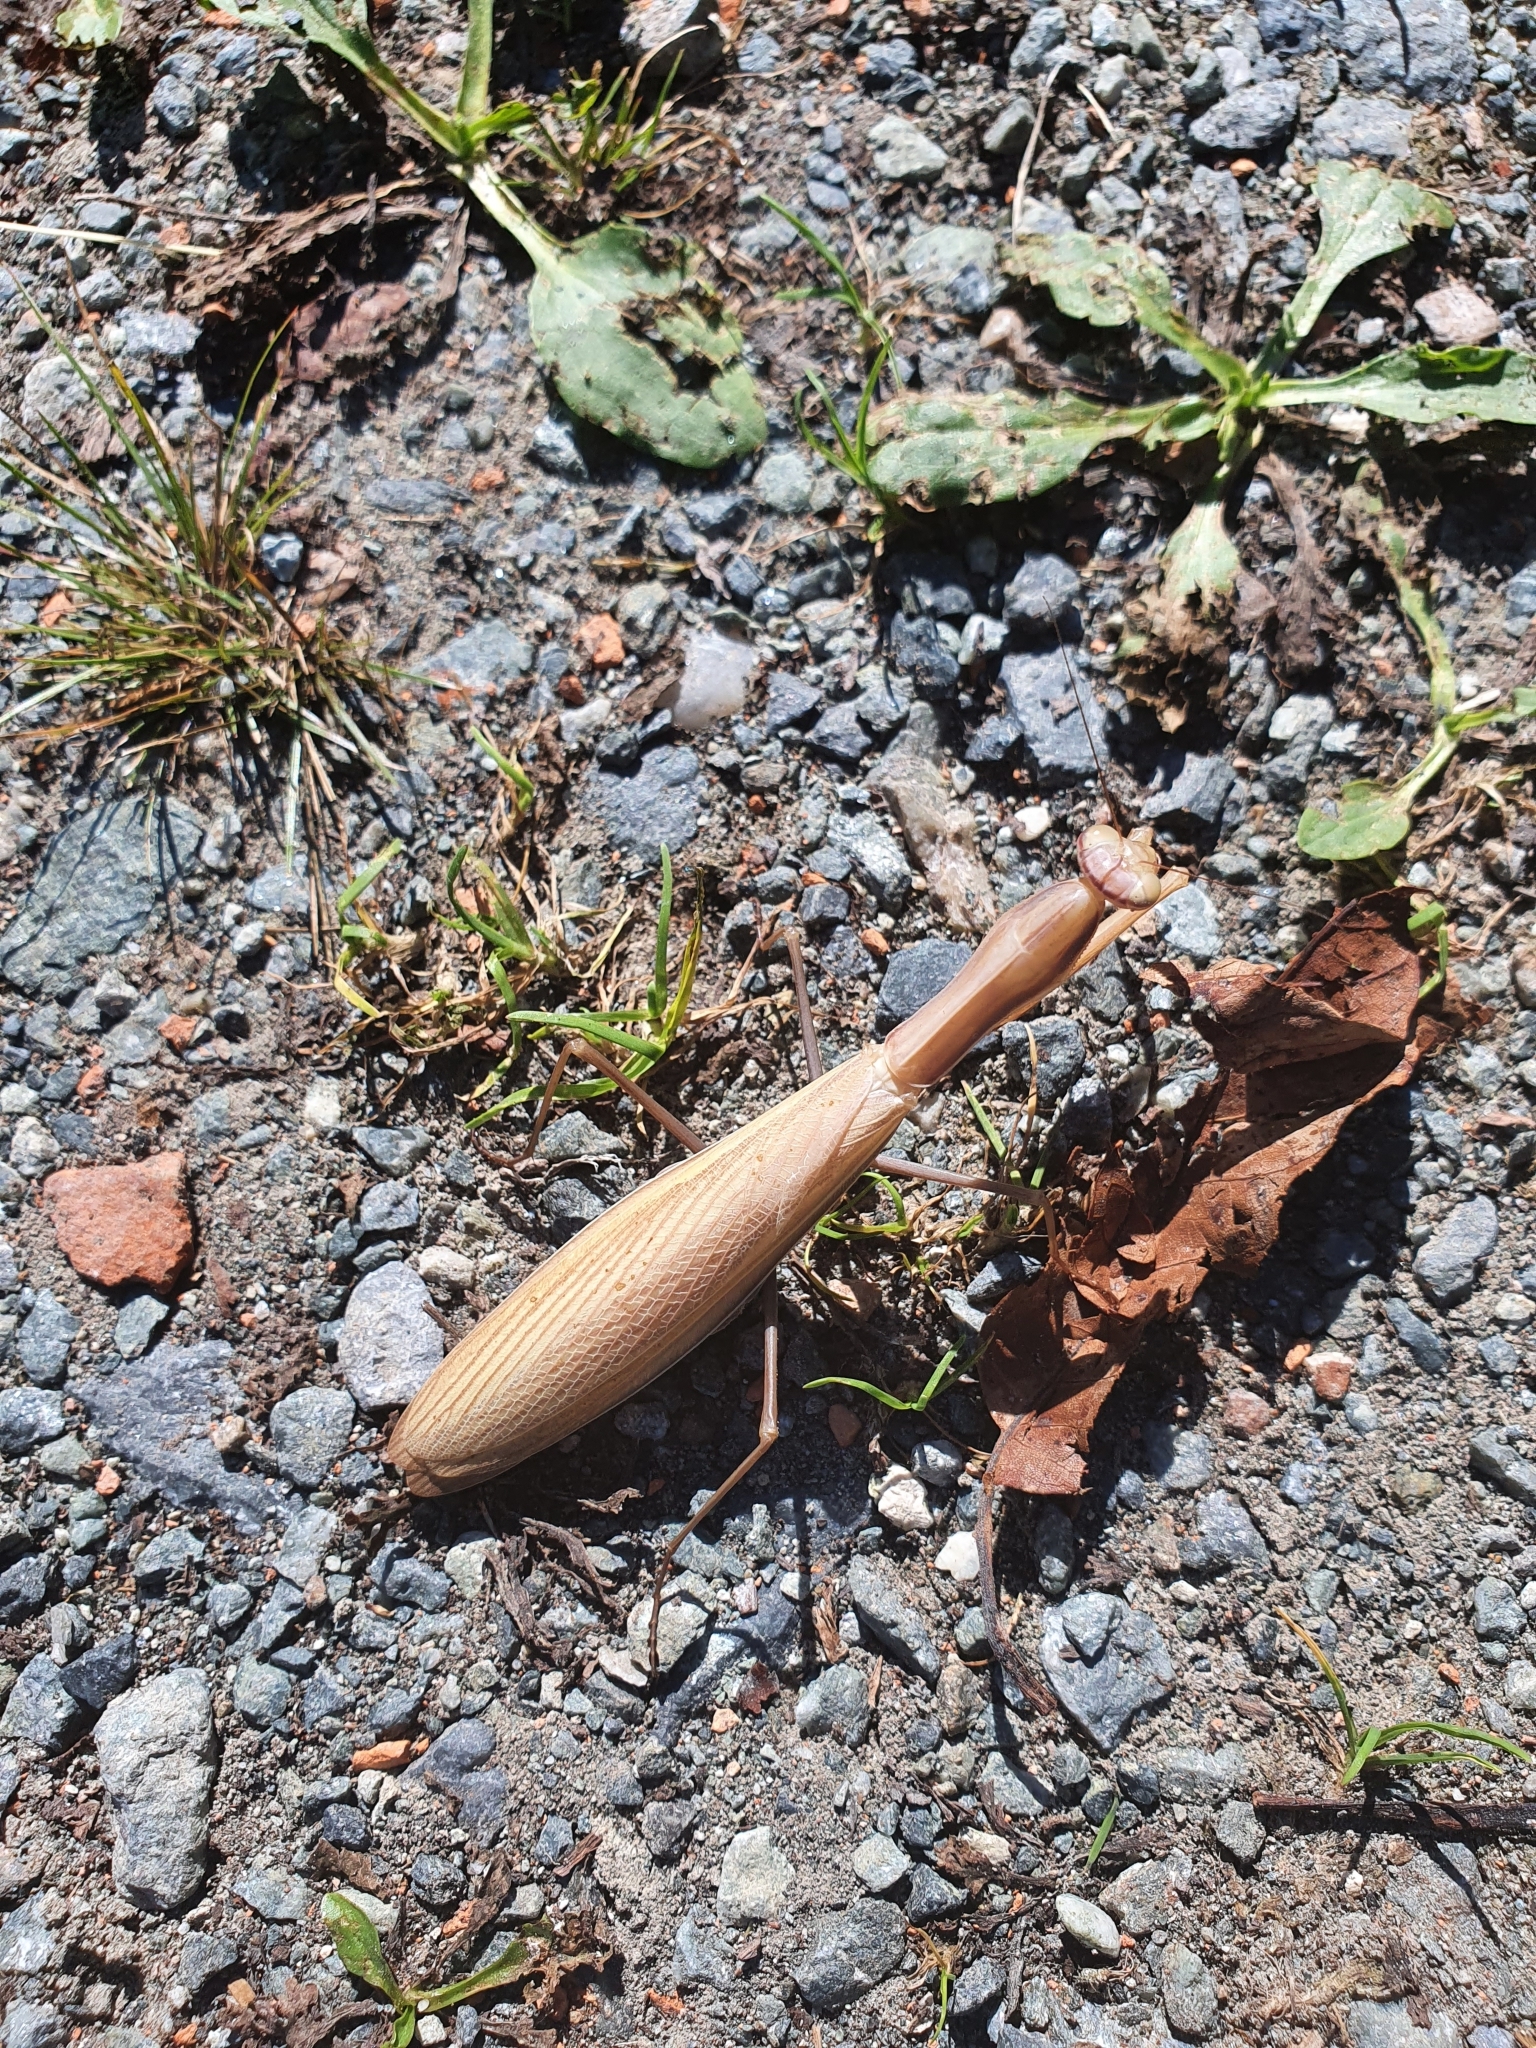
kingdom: Animalia
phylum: Arthropoda
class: Insecta
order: Mantodea
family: Mantidae
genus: Mantis
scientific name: Mantis religiosa
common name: Praying mantis
